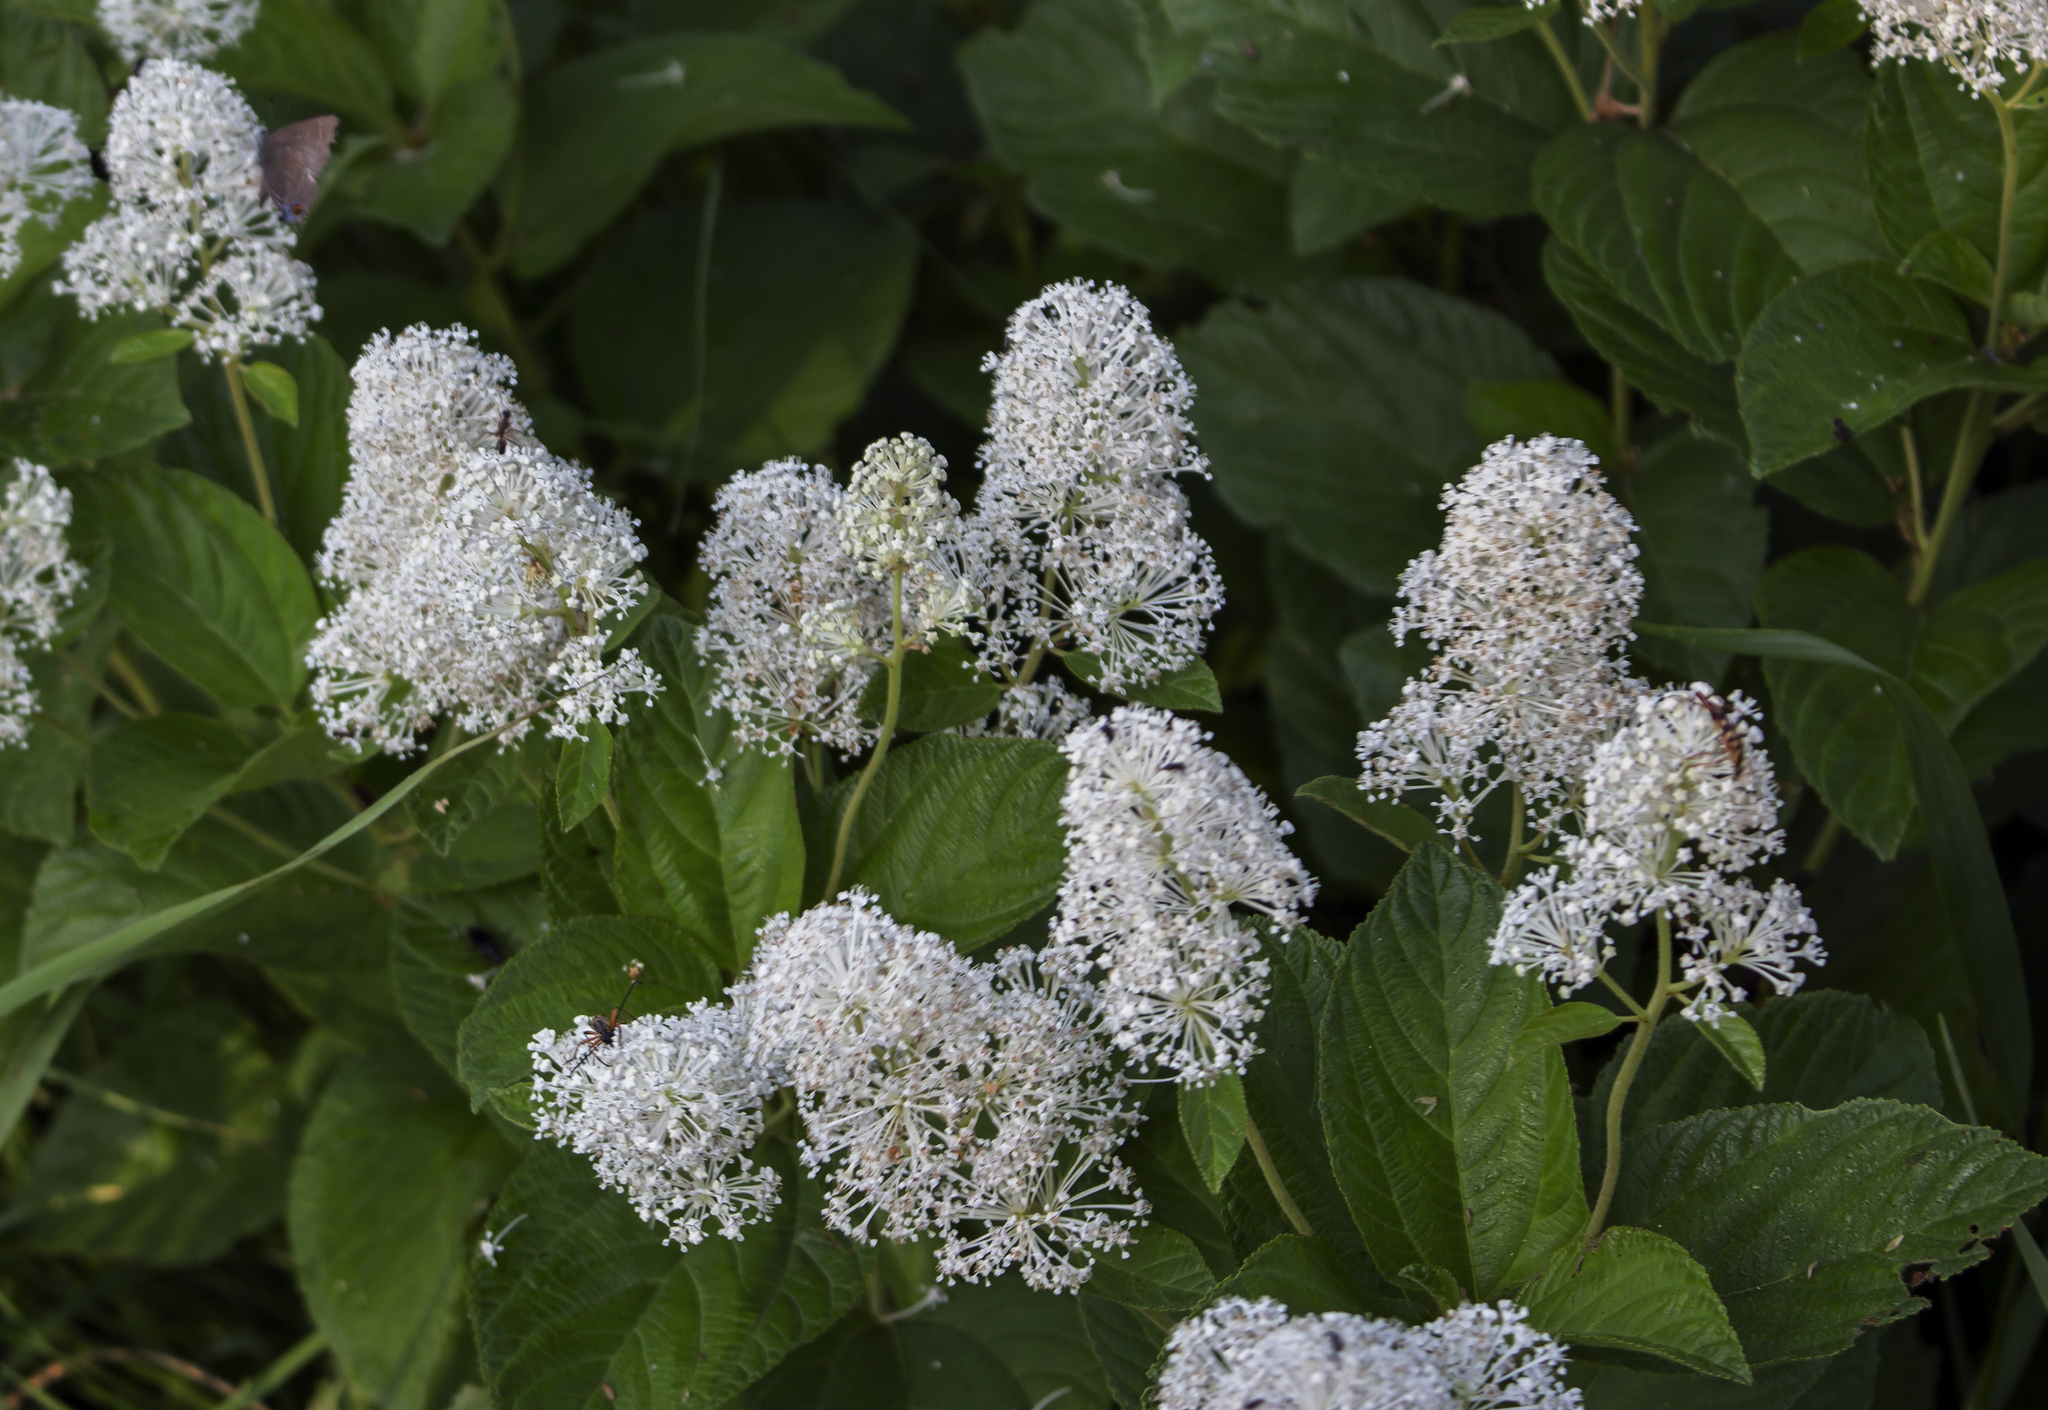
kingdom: Plantae
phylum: Tracheophyta
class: Magnoliopsida
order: Rosales
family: Rhamnaceae
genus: Ceanothus
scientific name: Ceanothus americanus
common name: Redroot
